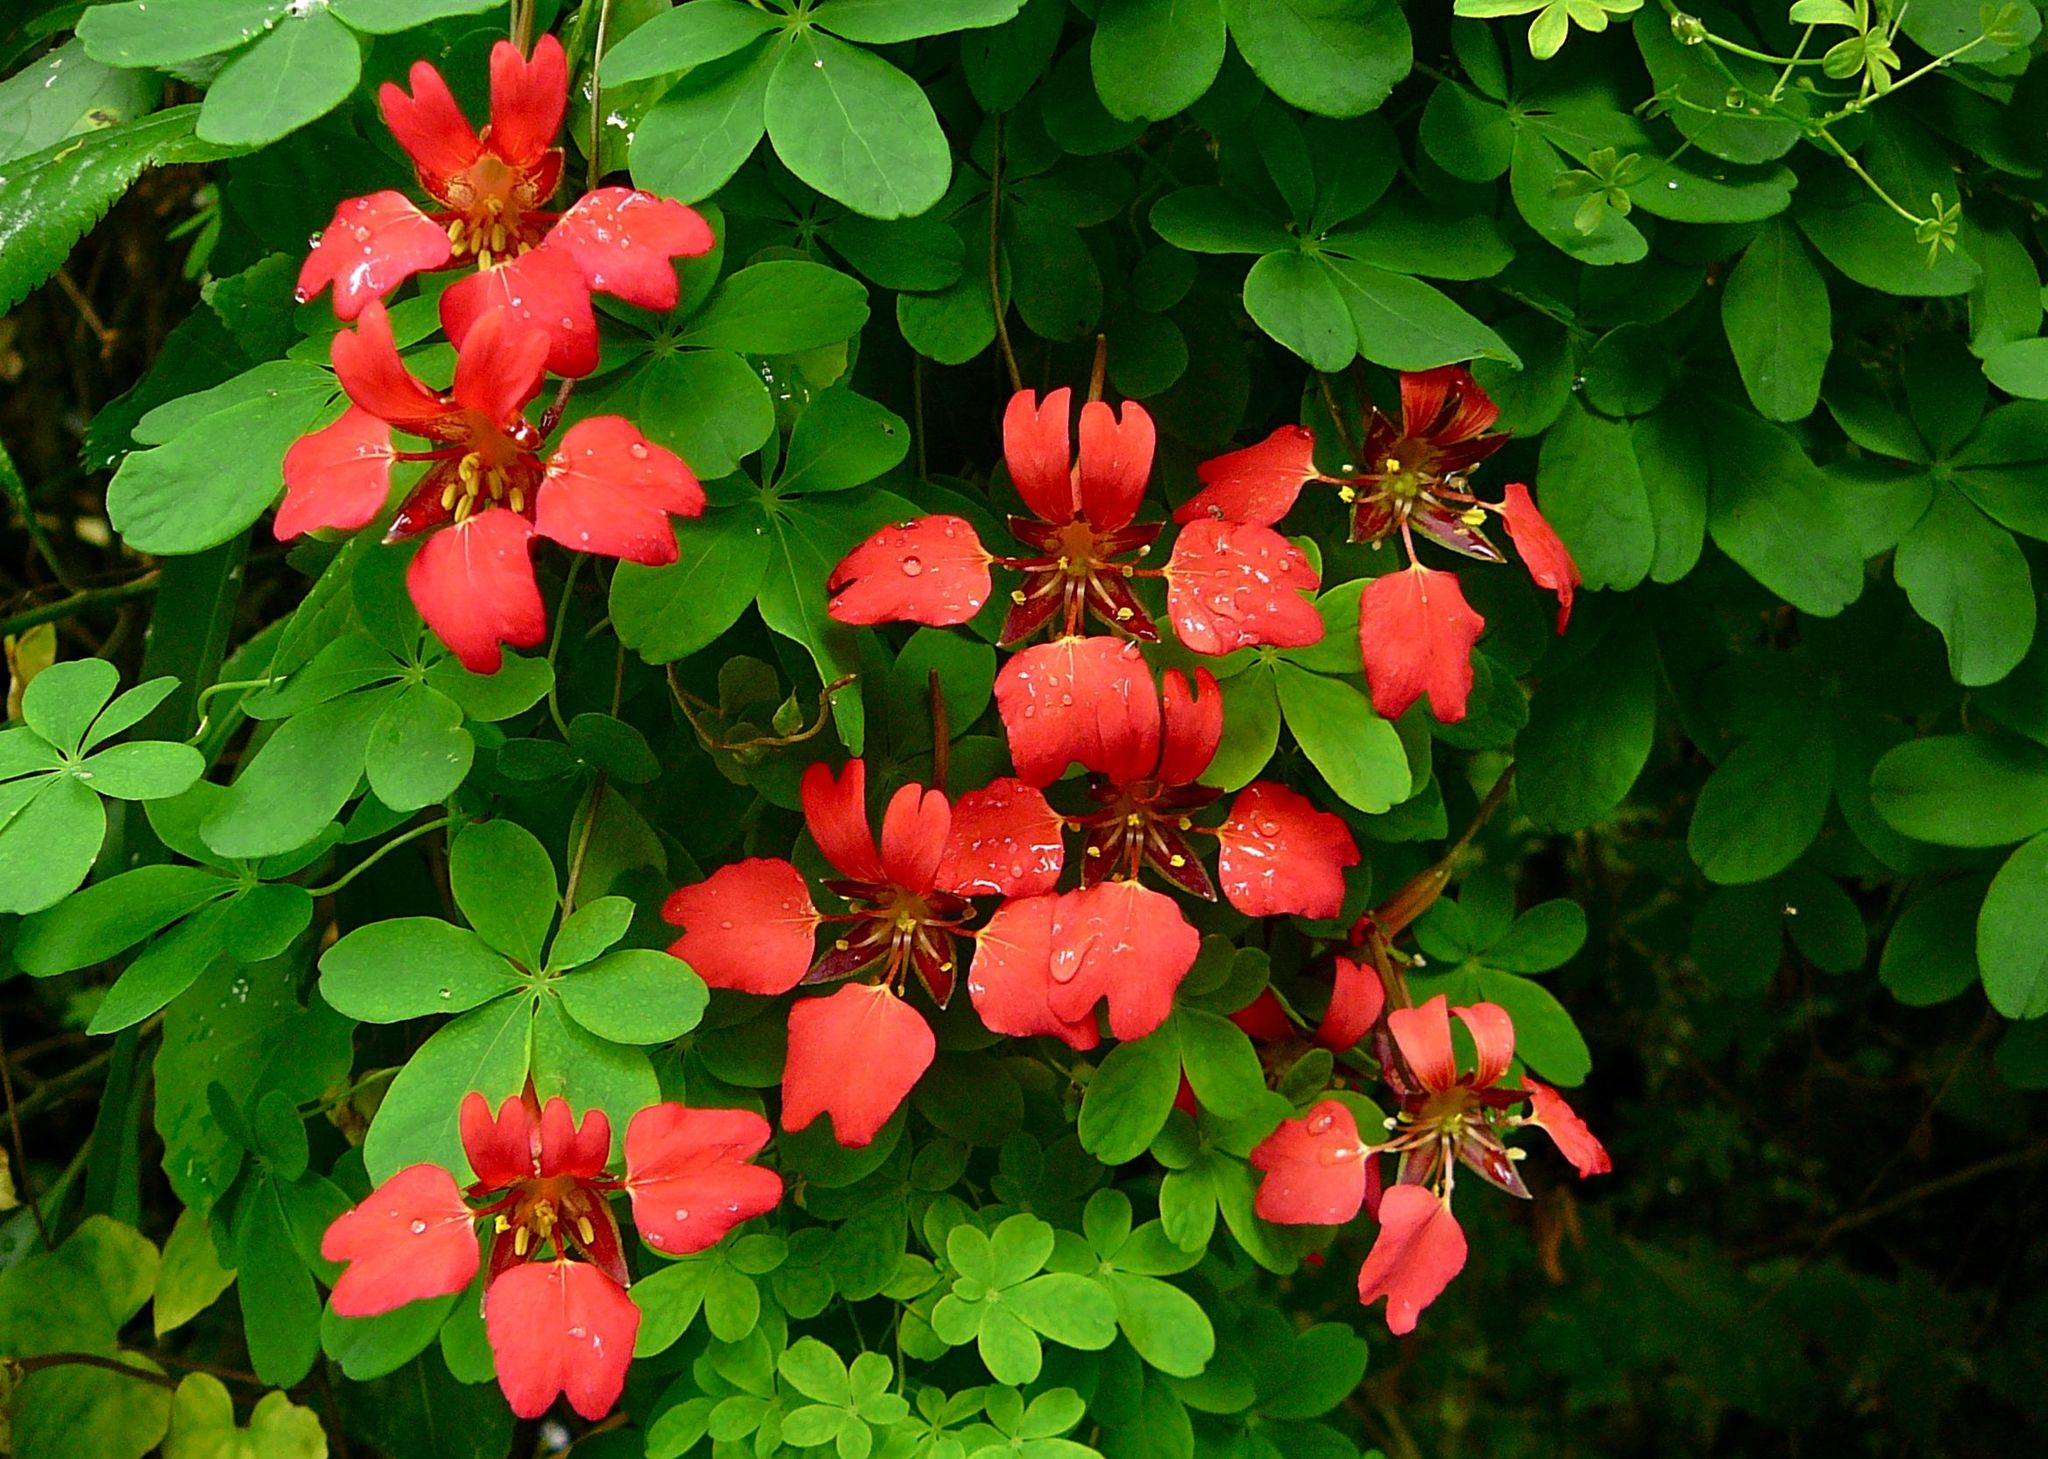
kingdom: Plantae
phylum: Tracheophyta
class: Magnoliopsida
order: Brassicales
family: Tropaeolaceae
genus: Tropaeolum
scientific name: Tropaeolum speciosum
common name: Flame nasturtium
